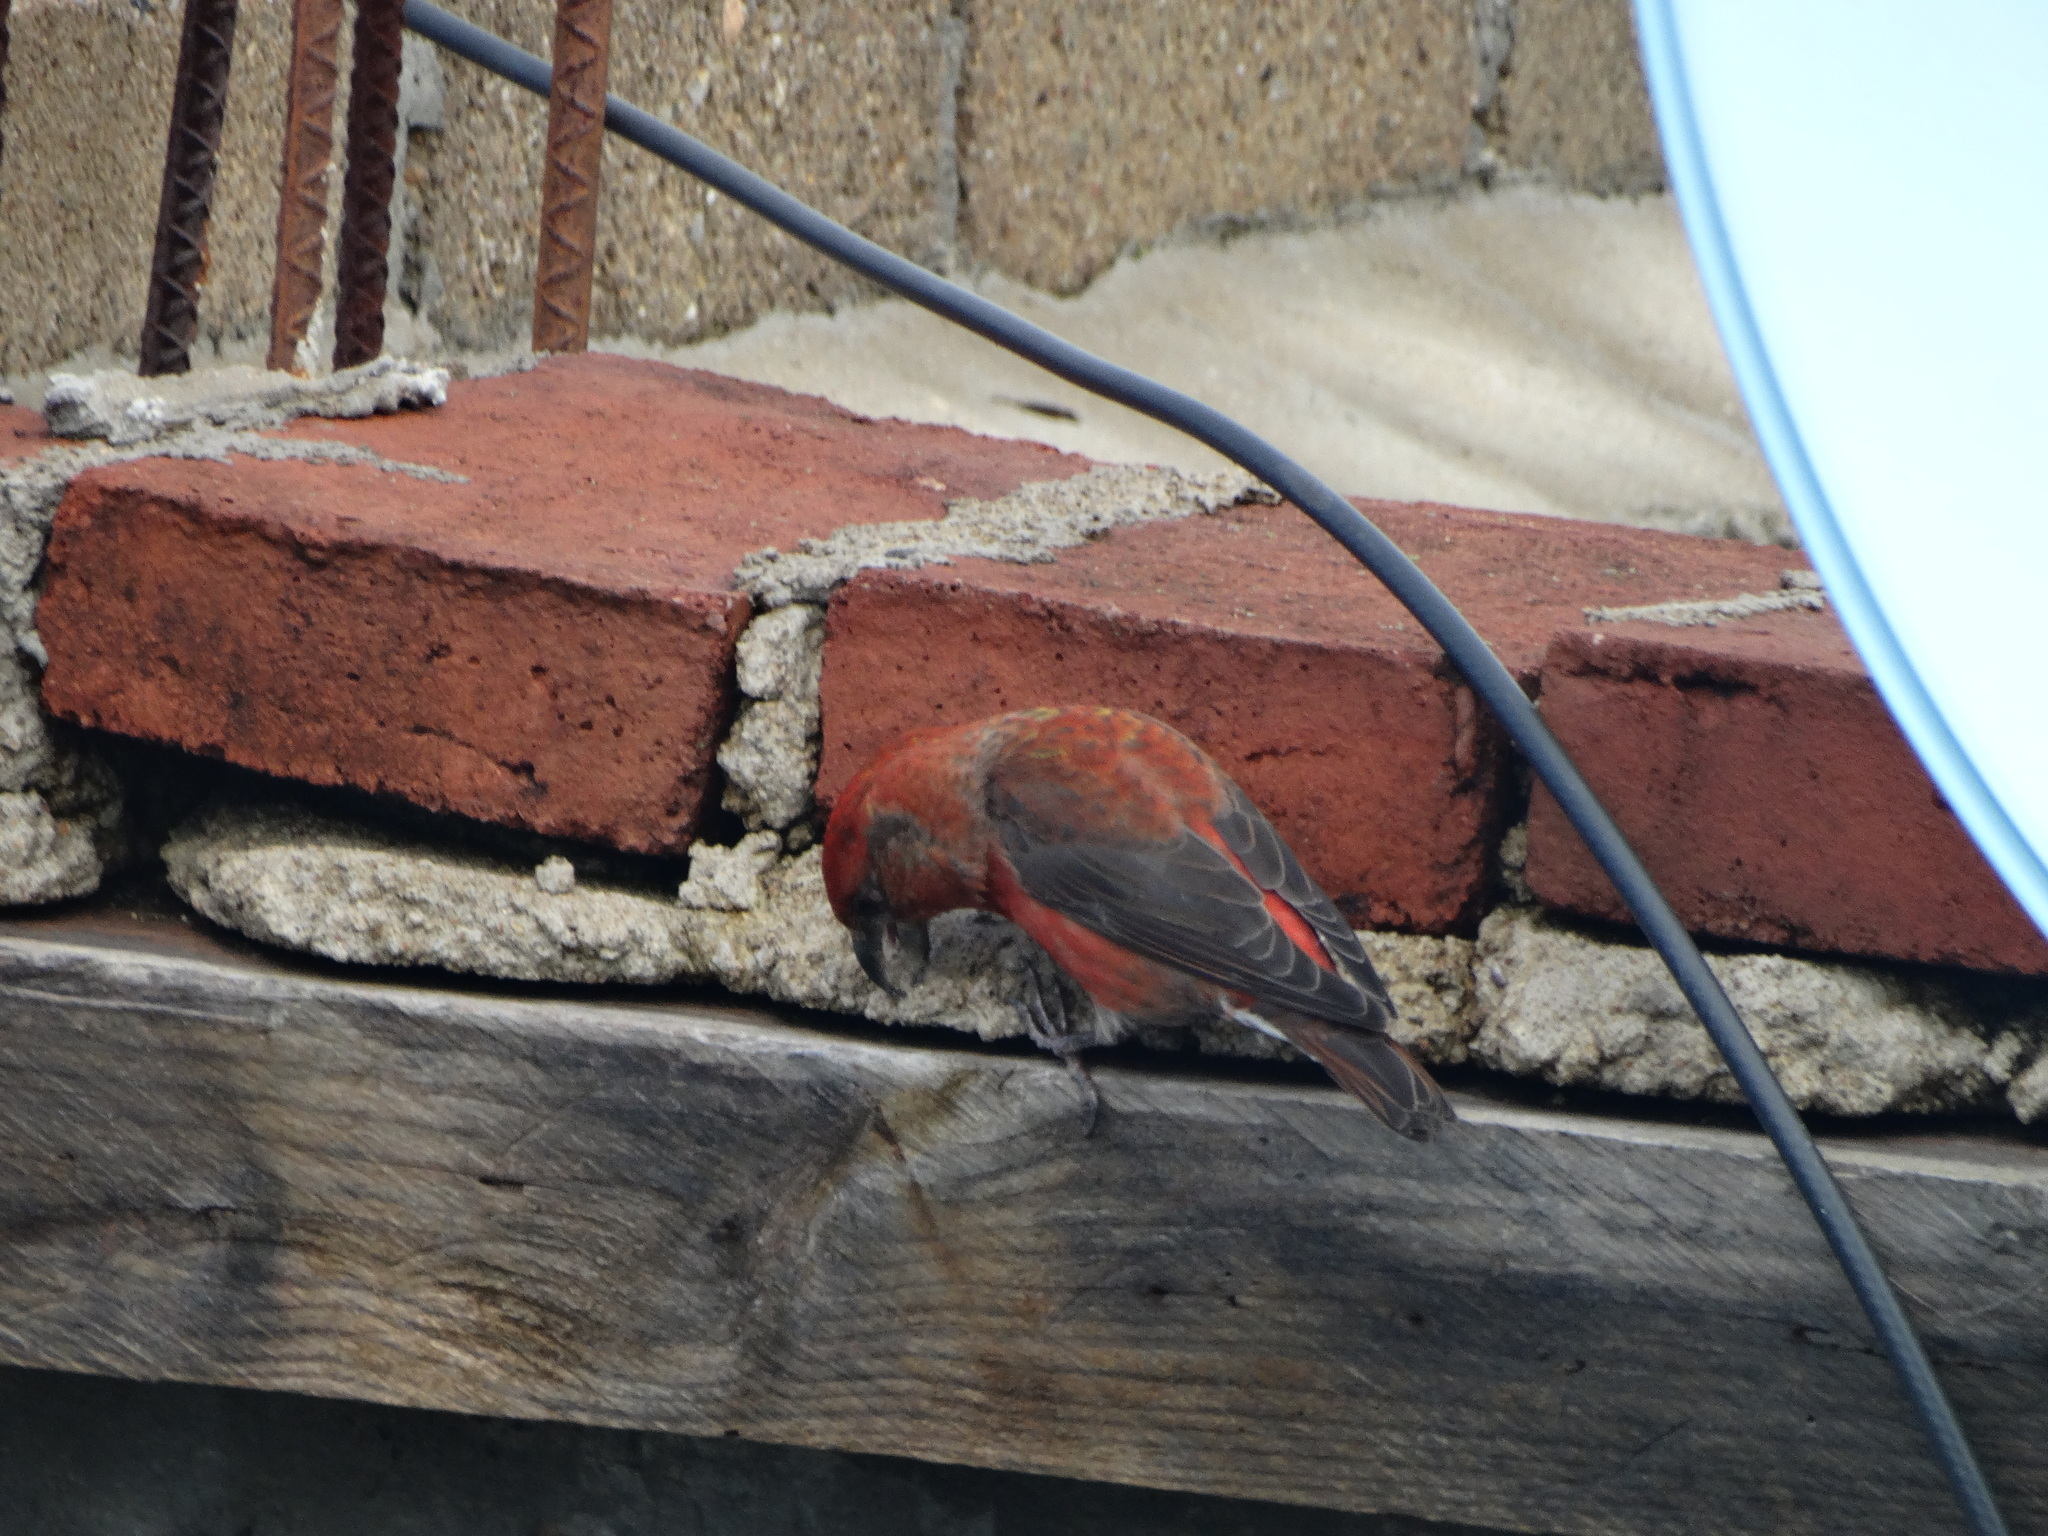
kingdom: Animalia
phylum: Chordata
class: Aves
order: Passeriformes
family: Fringillidae
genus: Loxia
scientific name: Loxia curvirostra
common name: Red crossbill
